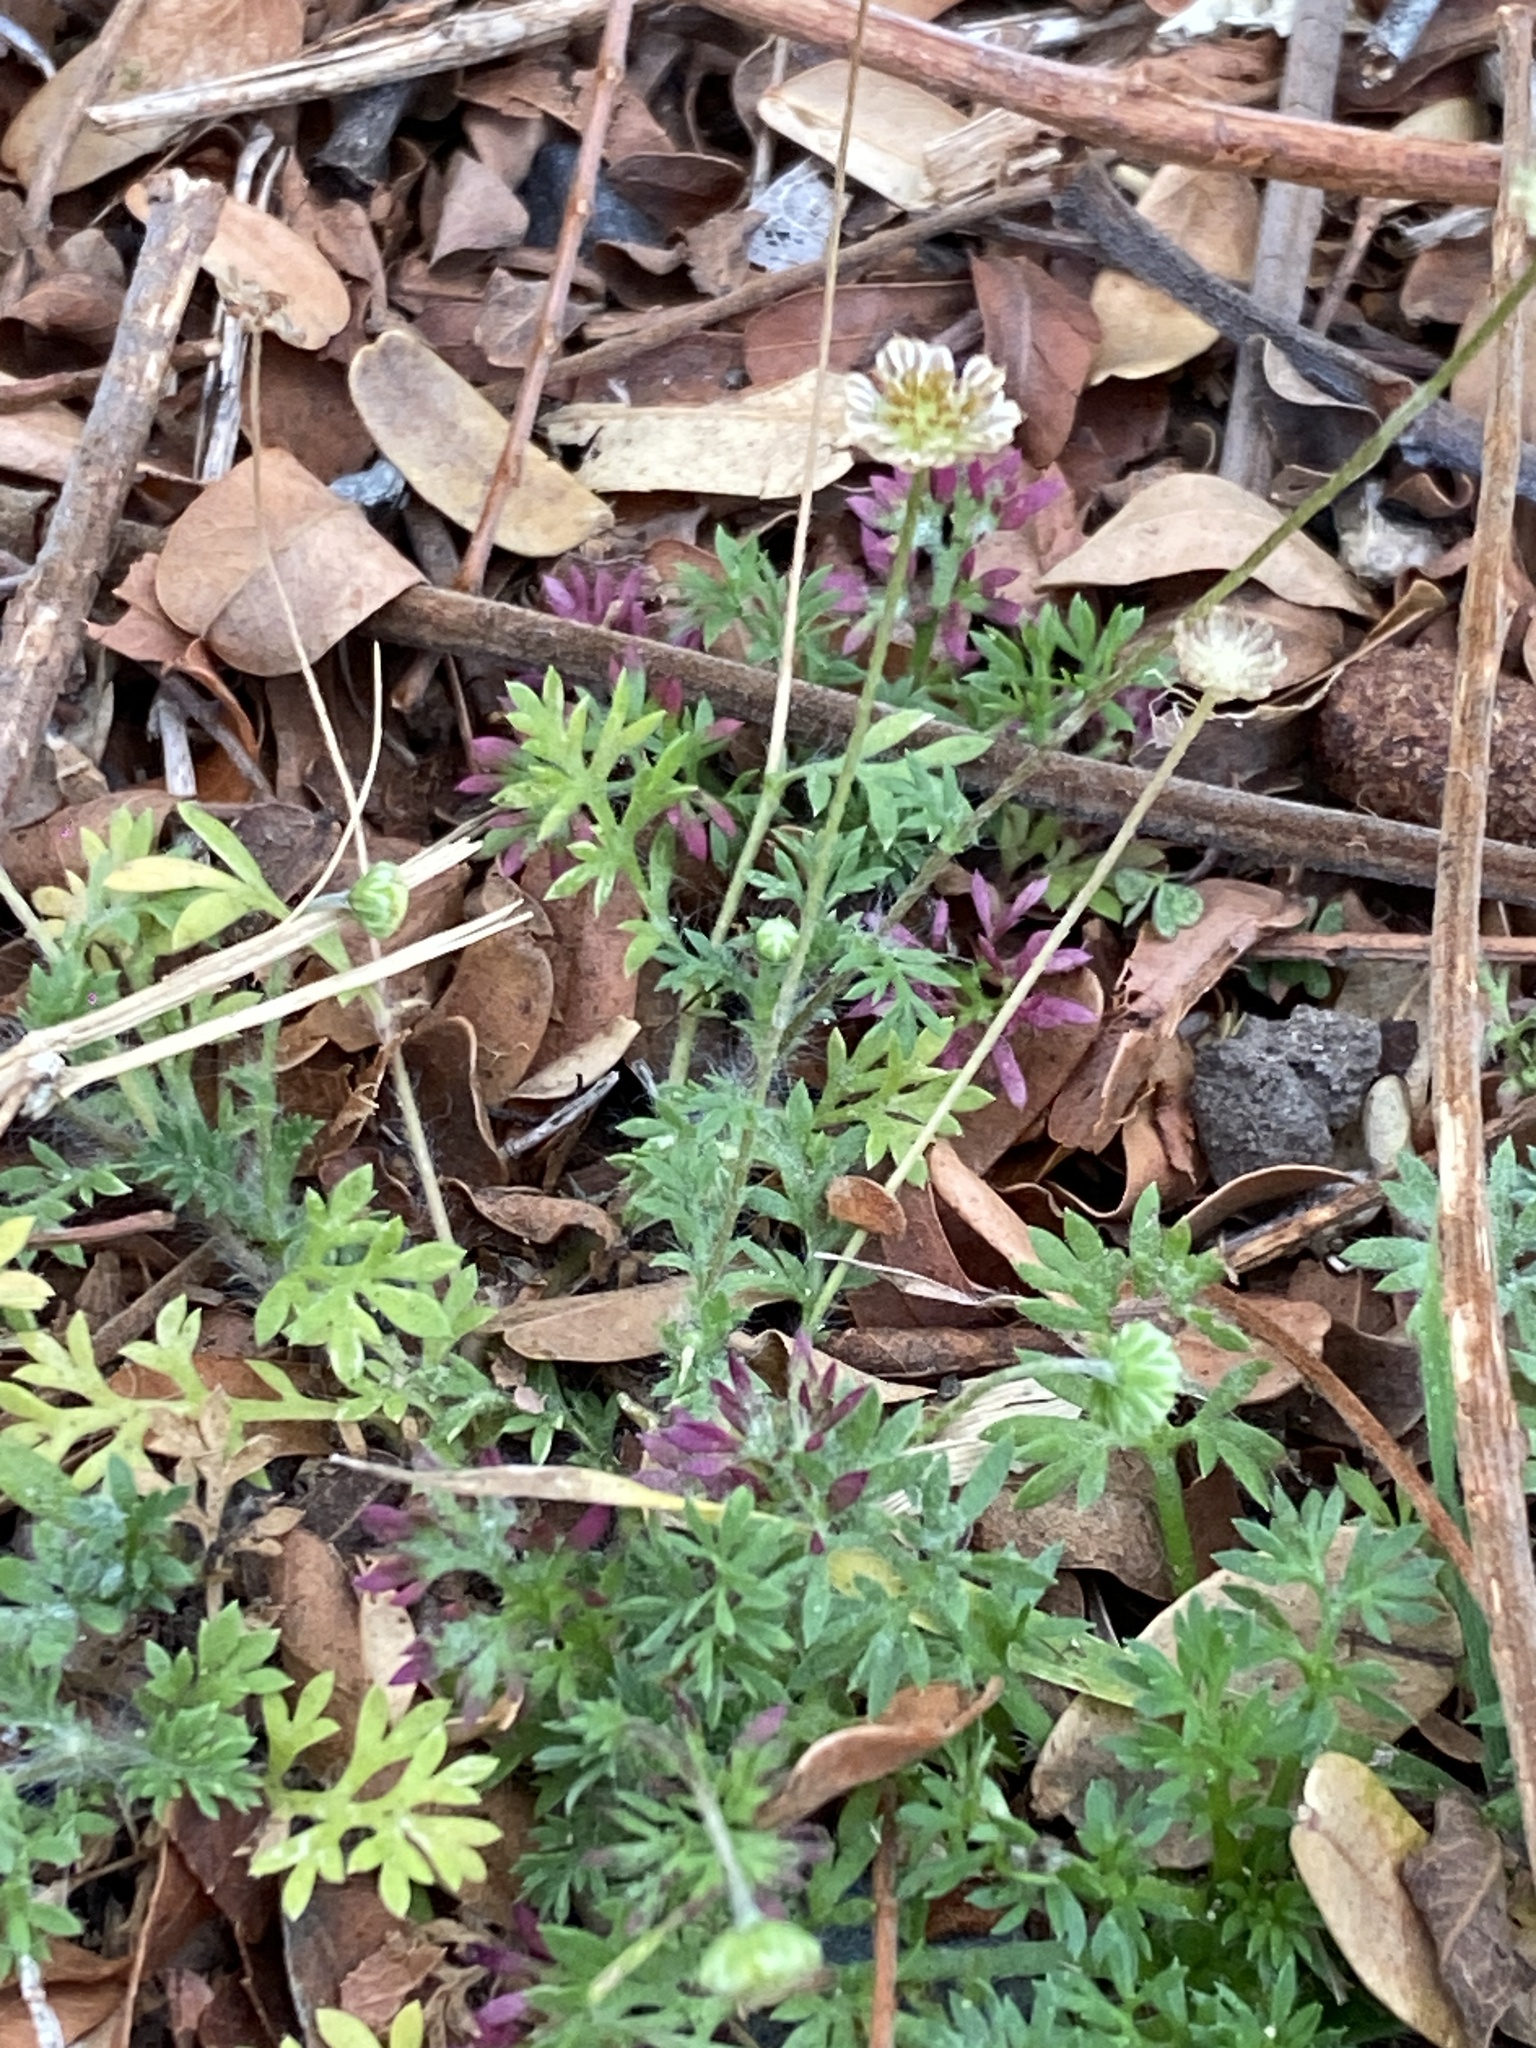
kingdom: Plantae
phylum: Tracheophyta
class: Magnoliopsida
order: Asterales
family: Asteraceae
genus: Cotula
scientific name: Cotula australis
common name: Australian waterbuttons
